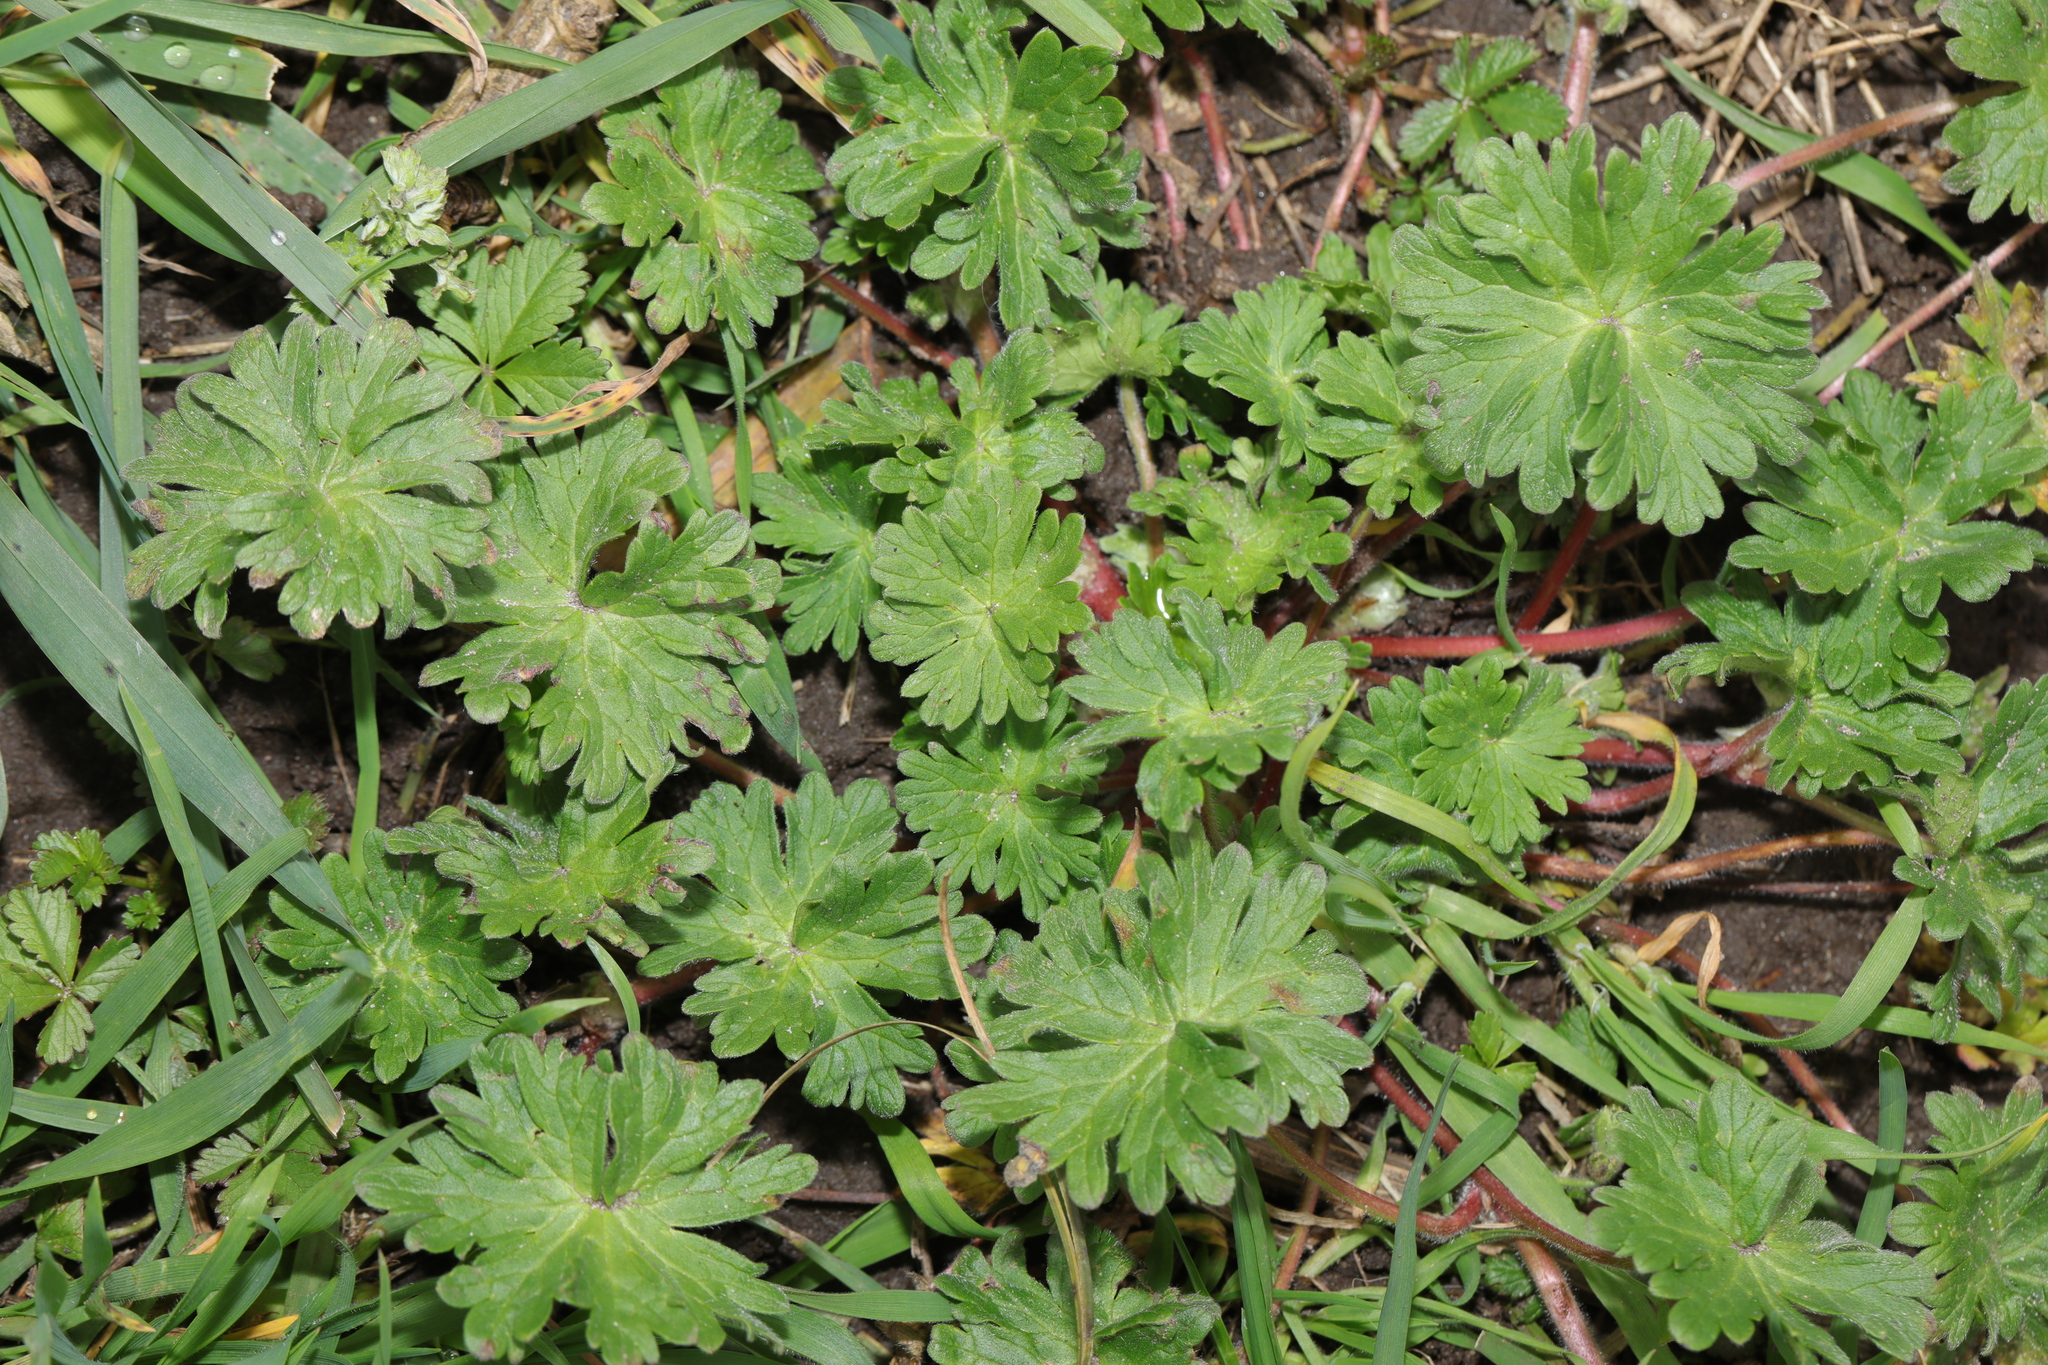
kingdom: Plantae
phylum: Tracheophyta
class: Magnoliopsida
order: Geraniales
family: Geraniaceae
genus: Geranium
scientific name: Geranium molle
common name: Dove's-foot crane's-bill
